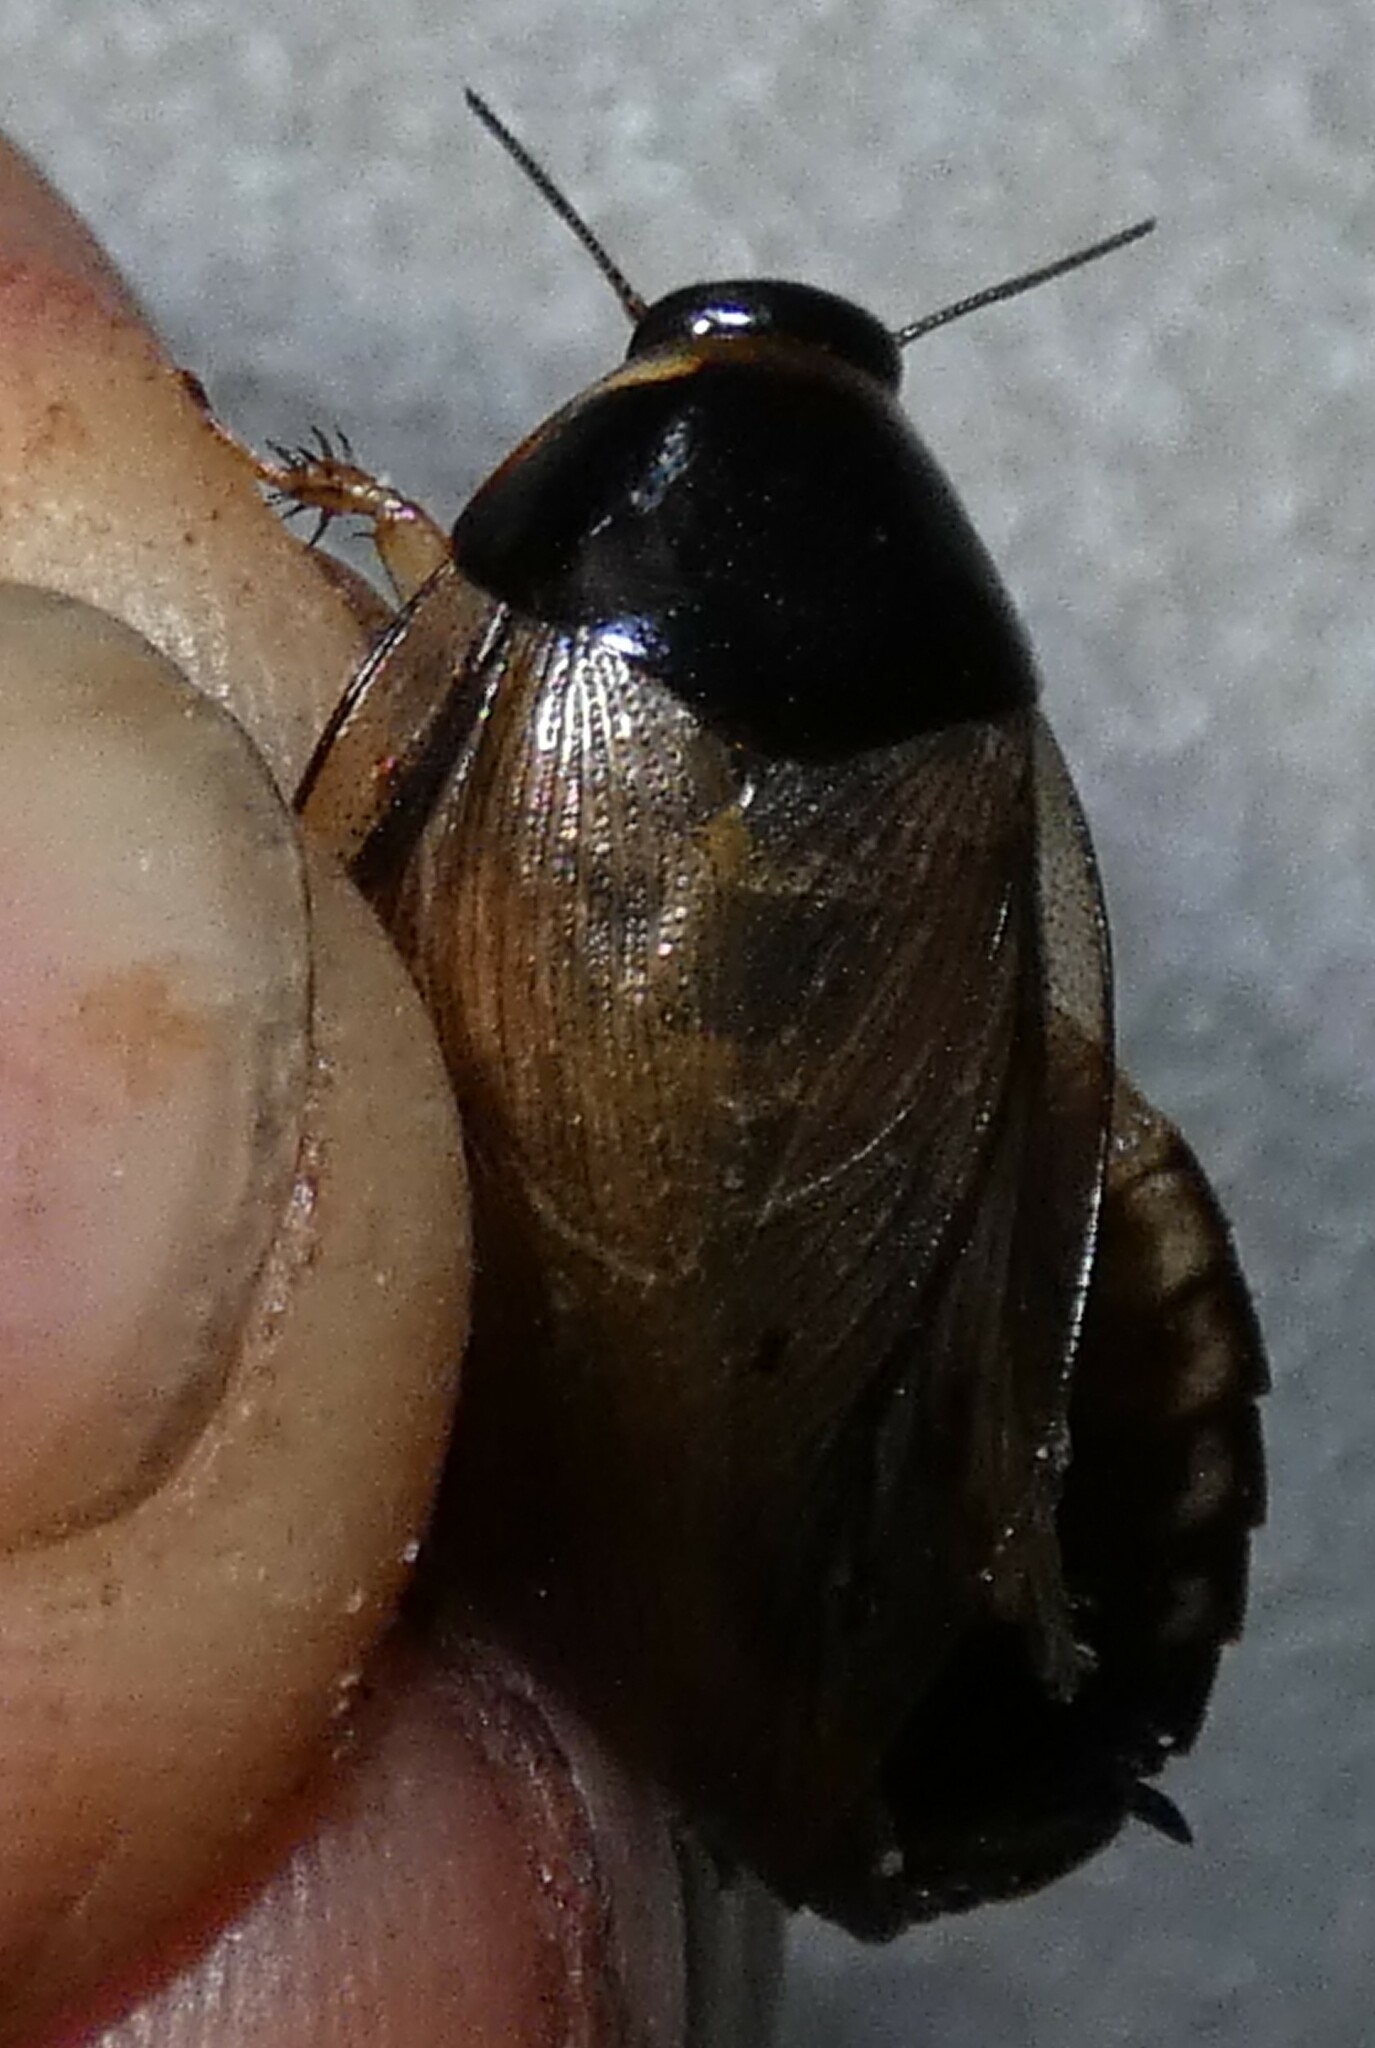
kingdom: Animalia
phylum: Arthropoda
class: Insecta
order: Blattodea
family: Blaberidae
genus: Pycnoscelus
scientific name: Pycnoscelus surinamensis
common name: Surinam cockroach
